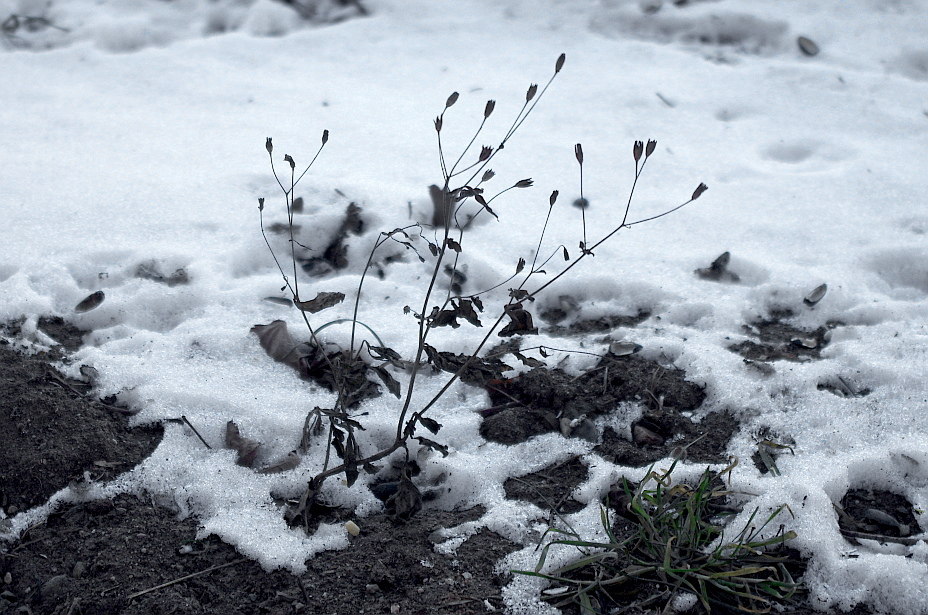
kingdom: Plantae
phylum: Tracheophyta
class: Magnoliopsida
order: Asterales
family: Asteraceae
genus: Lapsana
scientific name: Lapsana communis
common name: Nipplewort
